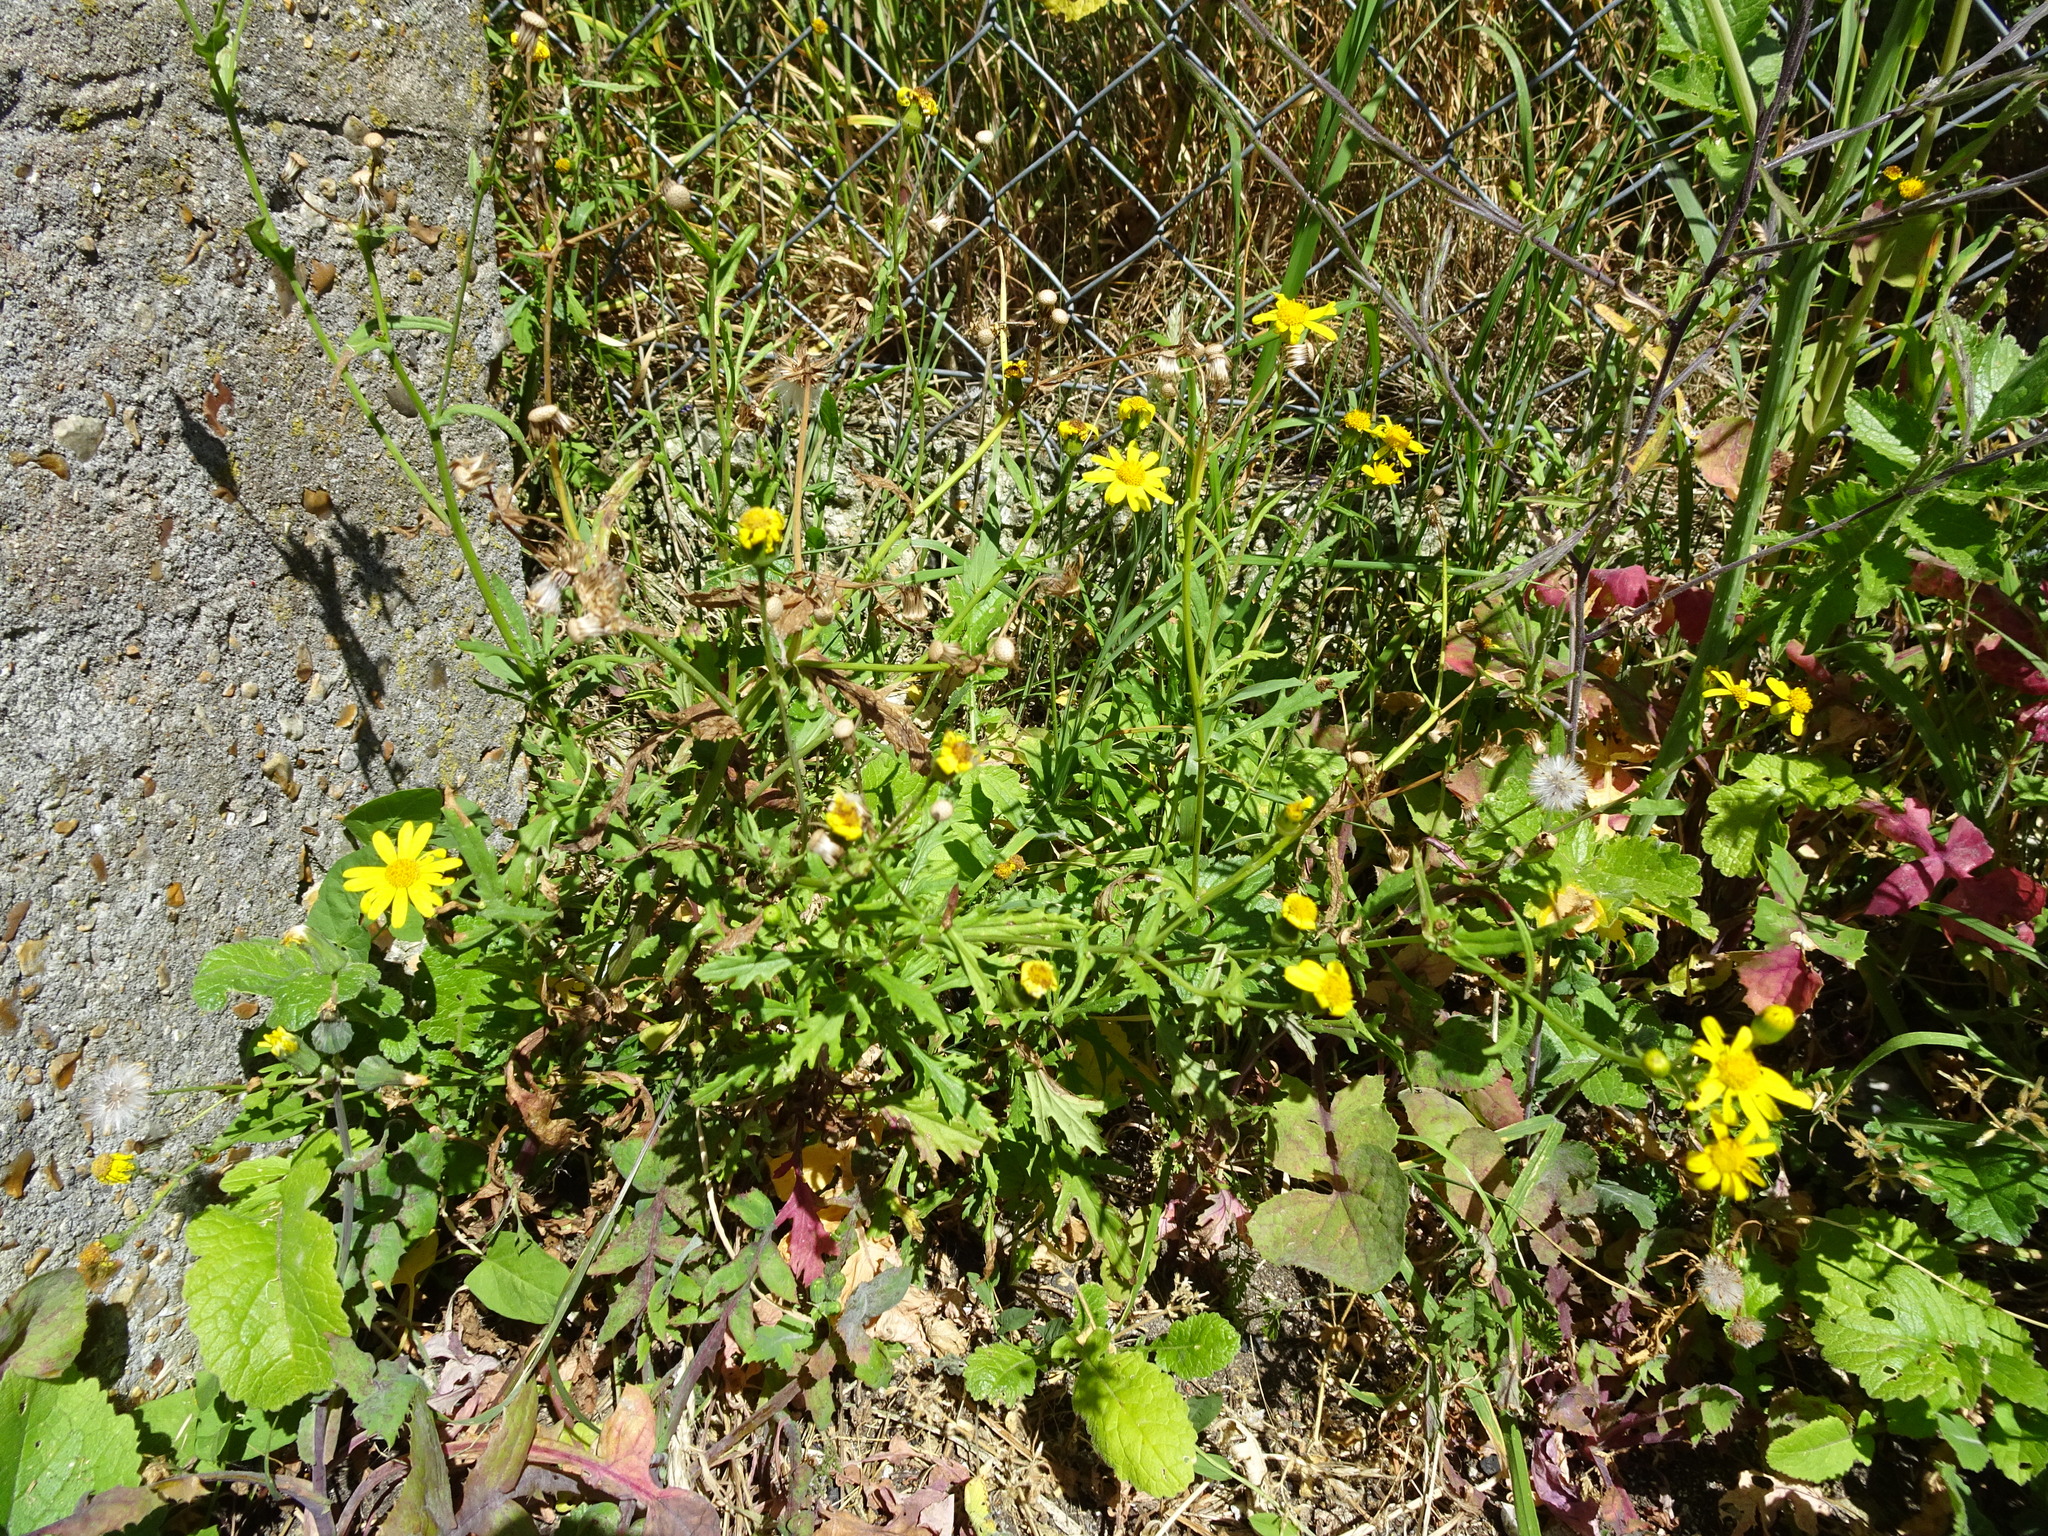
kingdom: Plantae
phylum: Tracheophyta
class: Magnoliopsida
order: Asterales
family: Asteraceae
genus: Senecio
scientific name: Senecio squalidus
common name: Oxford ragwort
